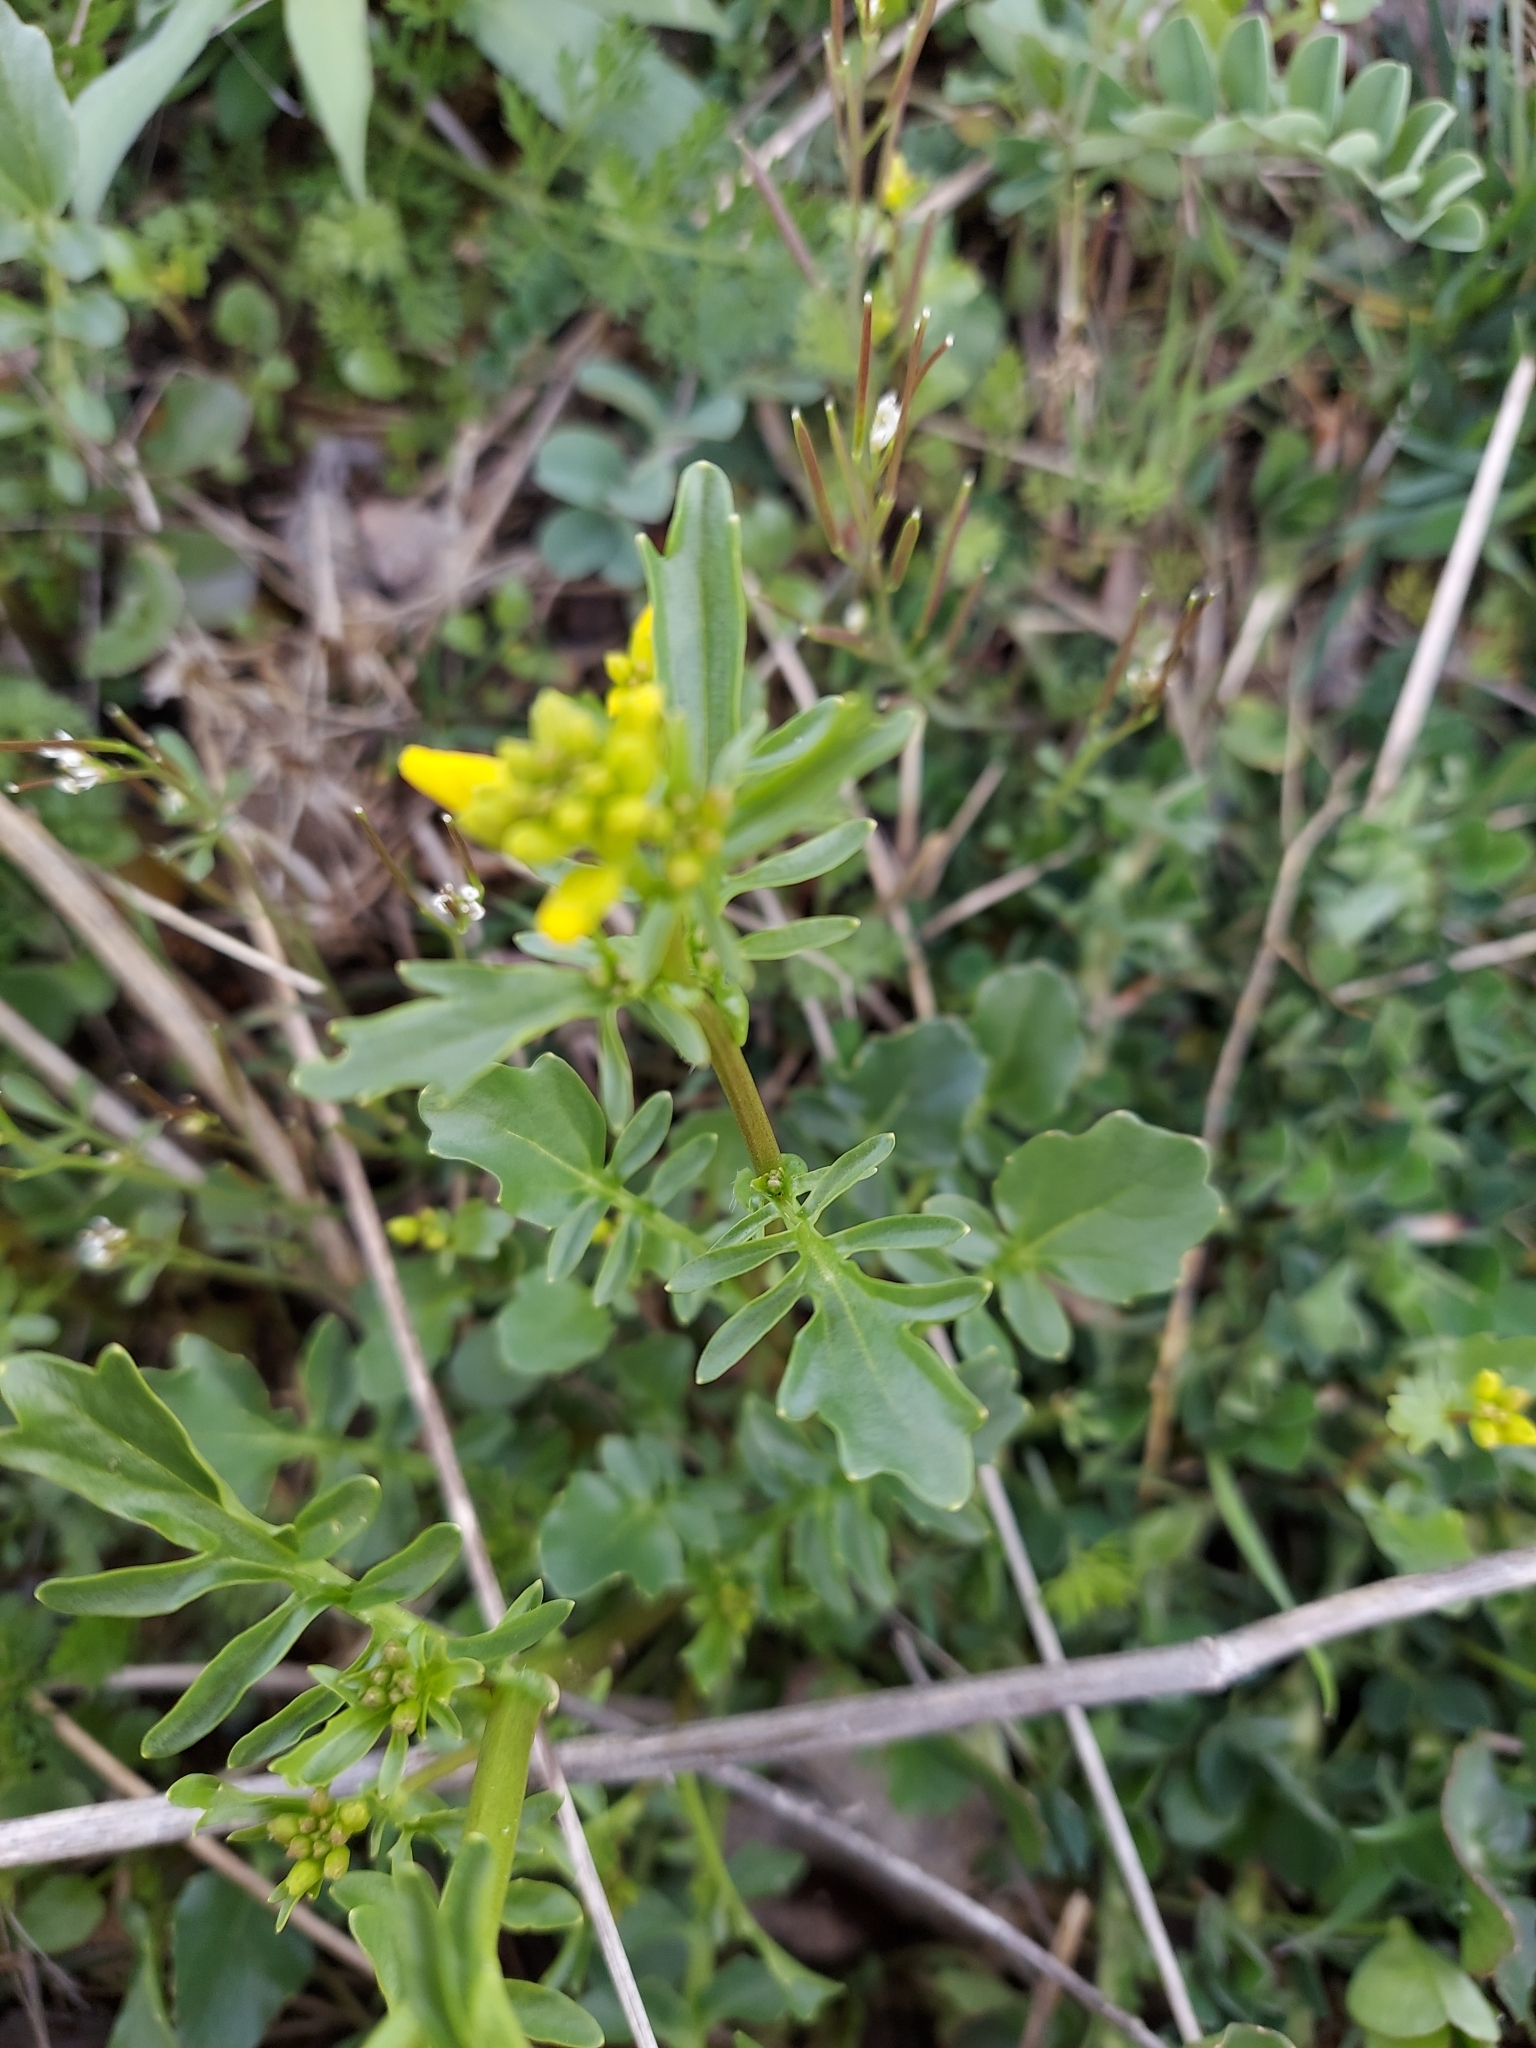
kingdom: Plantae
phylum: Tracheophyta
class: Magnoliopsida
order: Brassicales
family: Brassicaceae
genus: Barbarea
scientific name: Barbarea verna
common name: American cress
